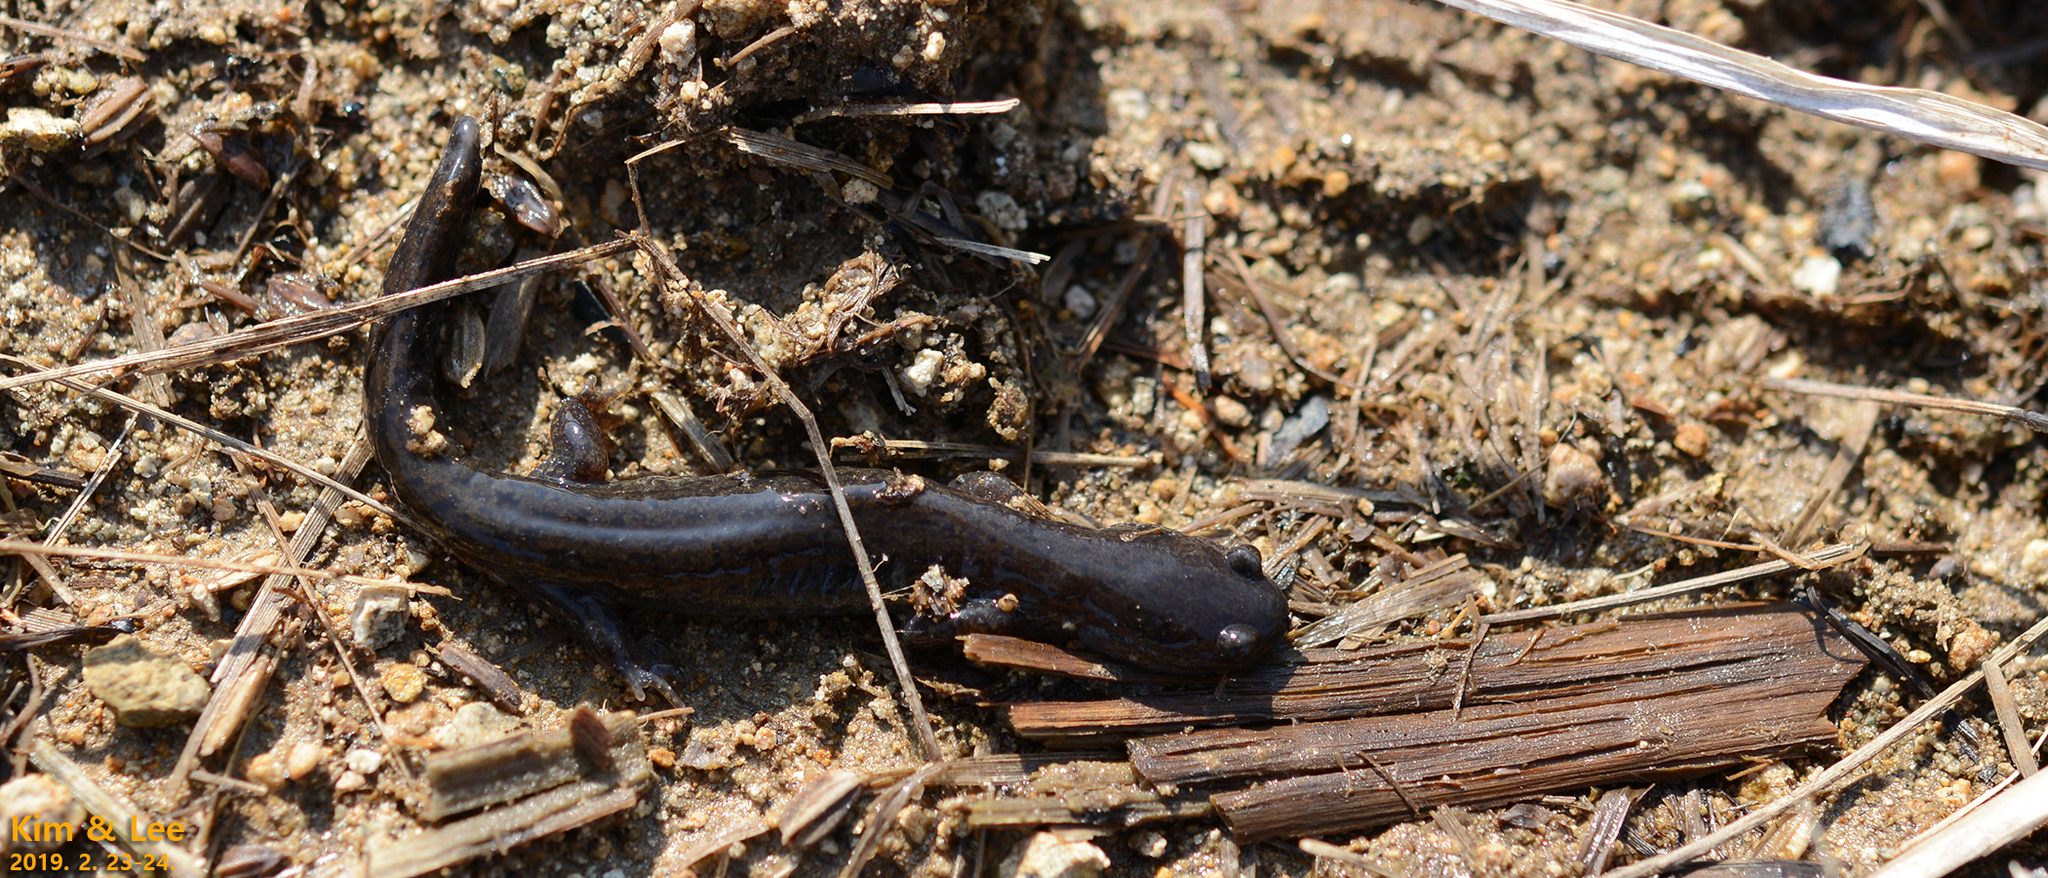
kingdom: Animalia
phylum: Chordata
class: Amphibia
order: Caudata
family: Hynobiidae
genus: Hynobius
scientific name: Hynobius unisacculus
